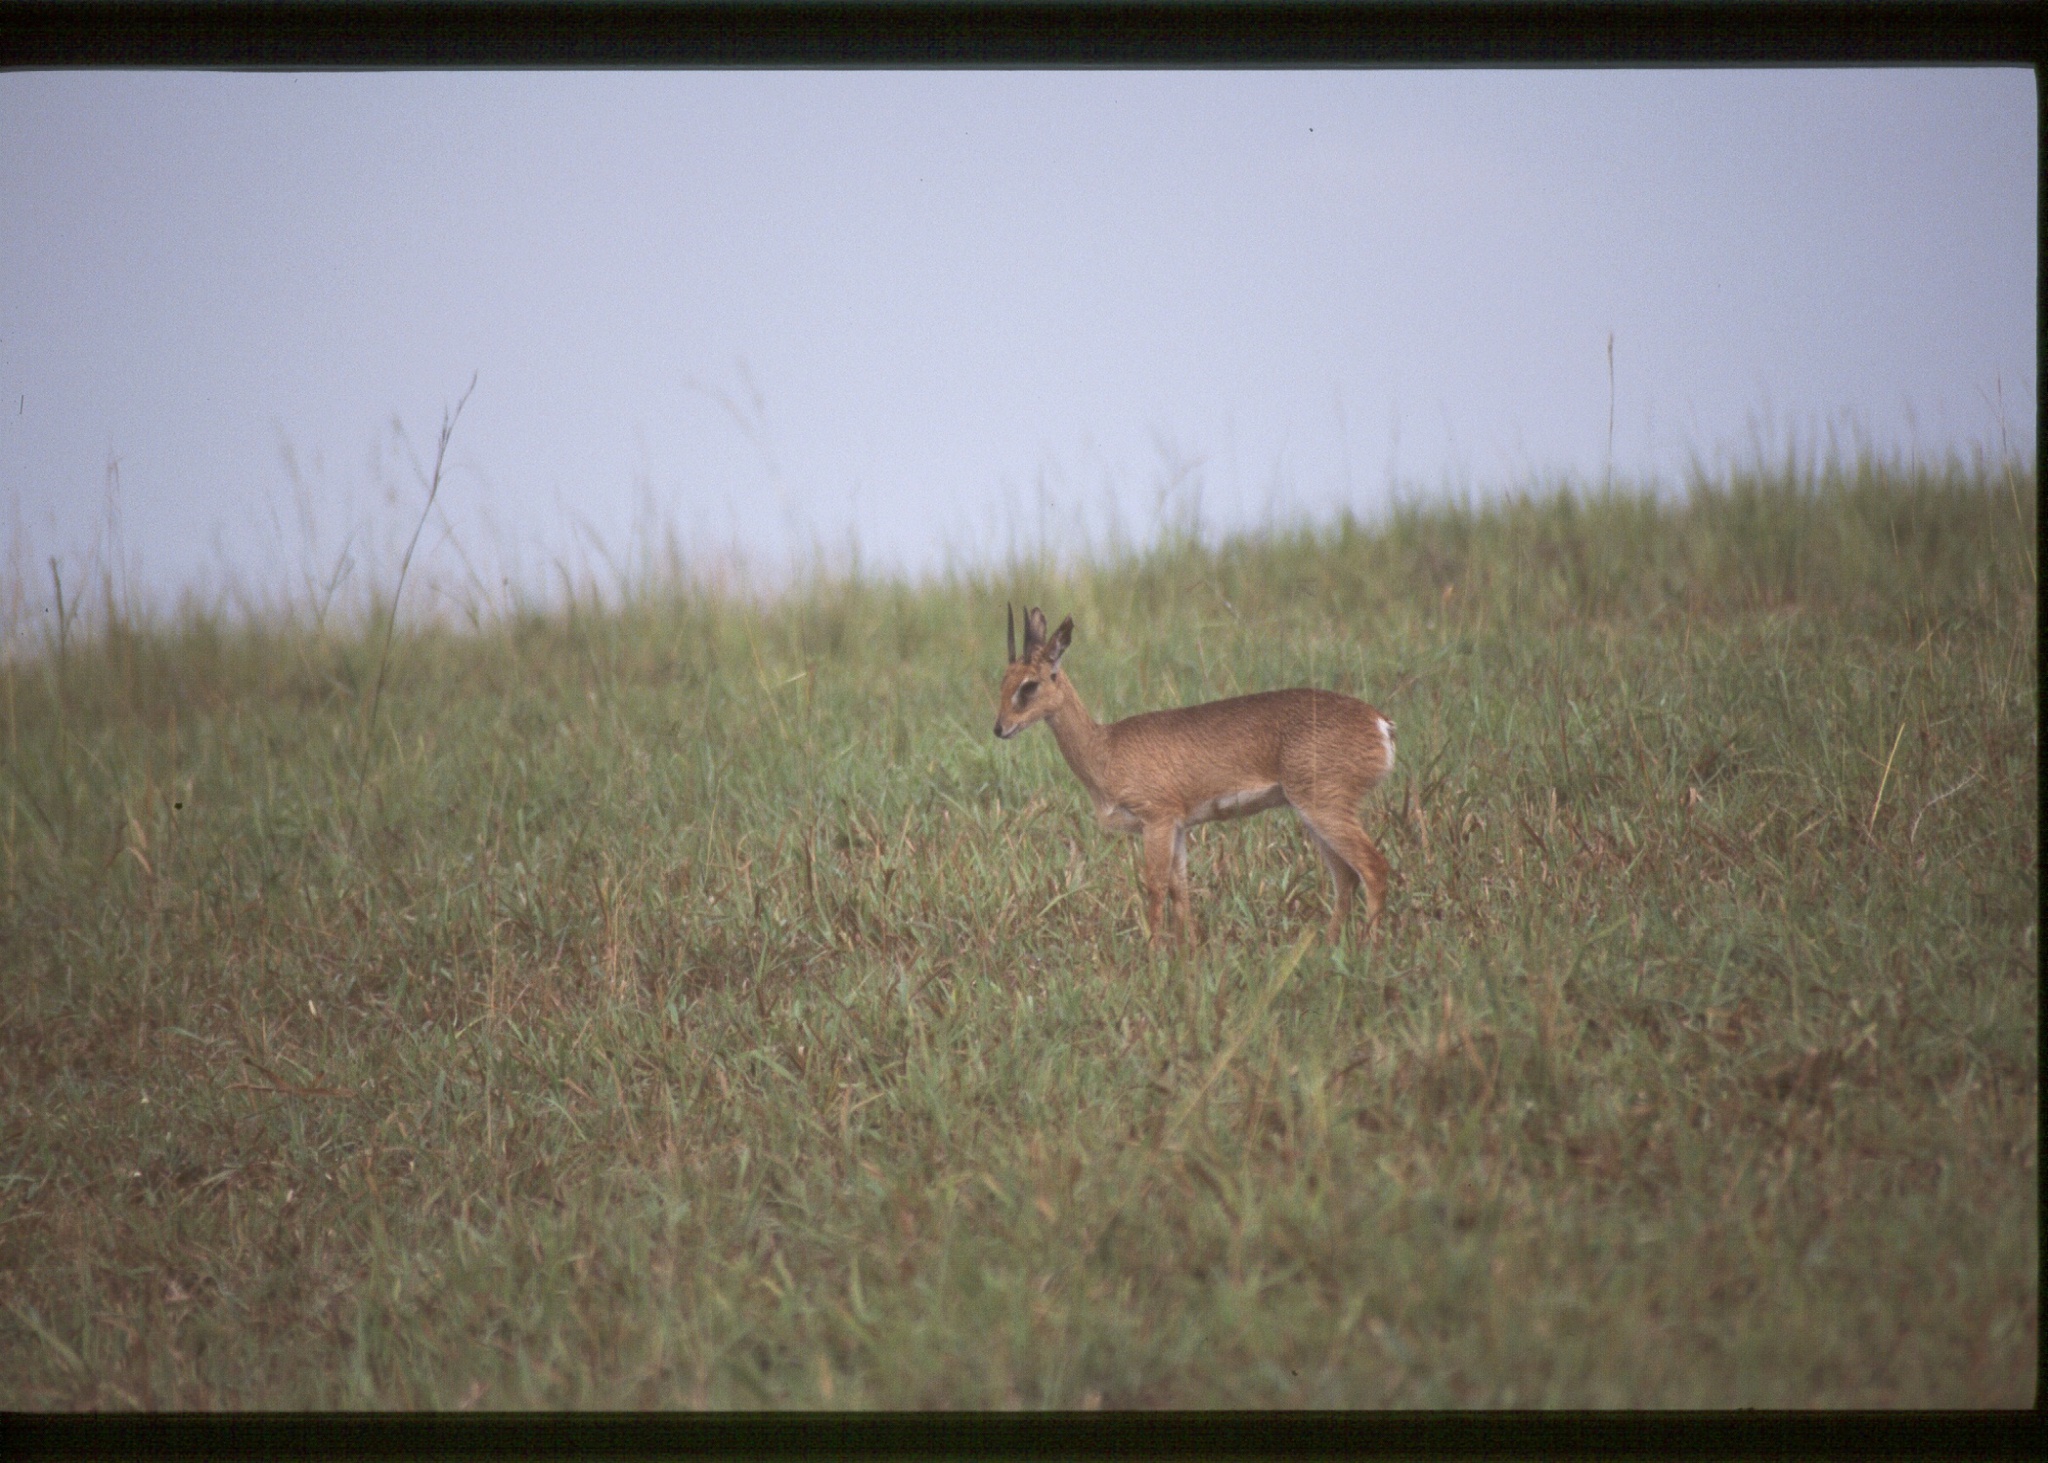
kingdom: Animalia
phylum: Chordata
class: Mammalia
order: Artiodactyla
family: Bovidae
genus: Ourebia
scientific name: Ourebia ourebi
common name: Oribi
